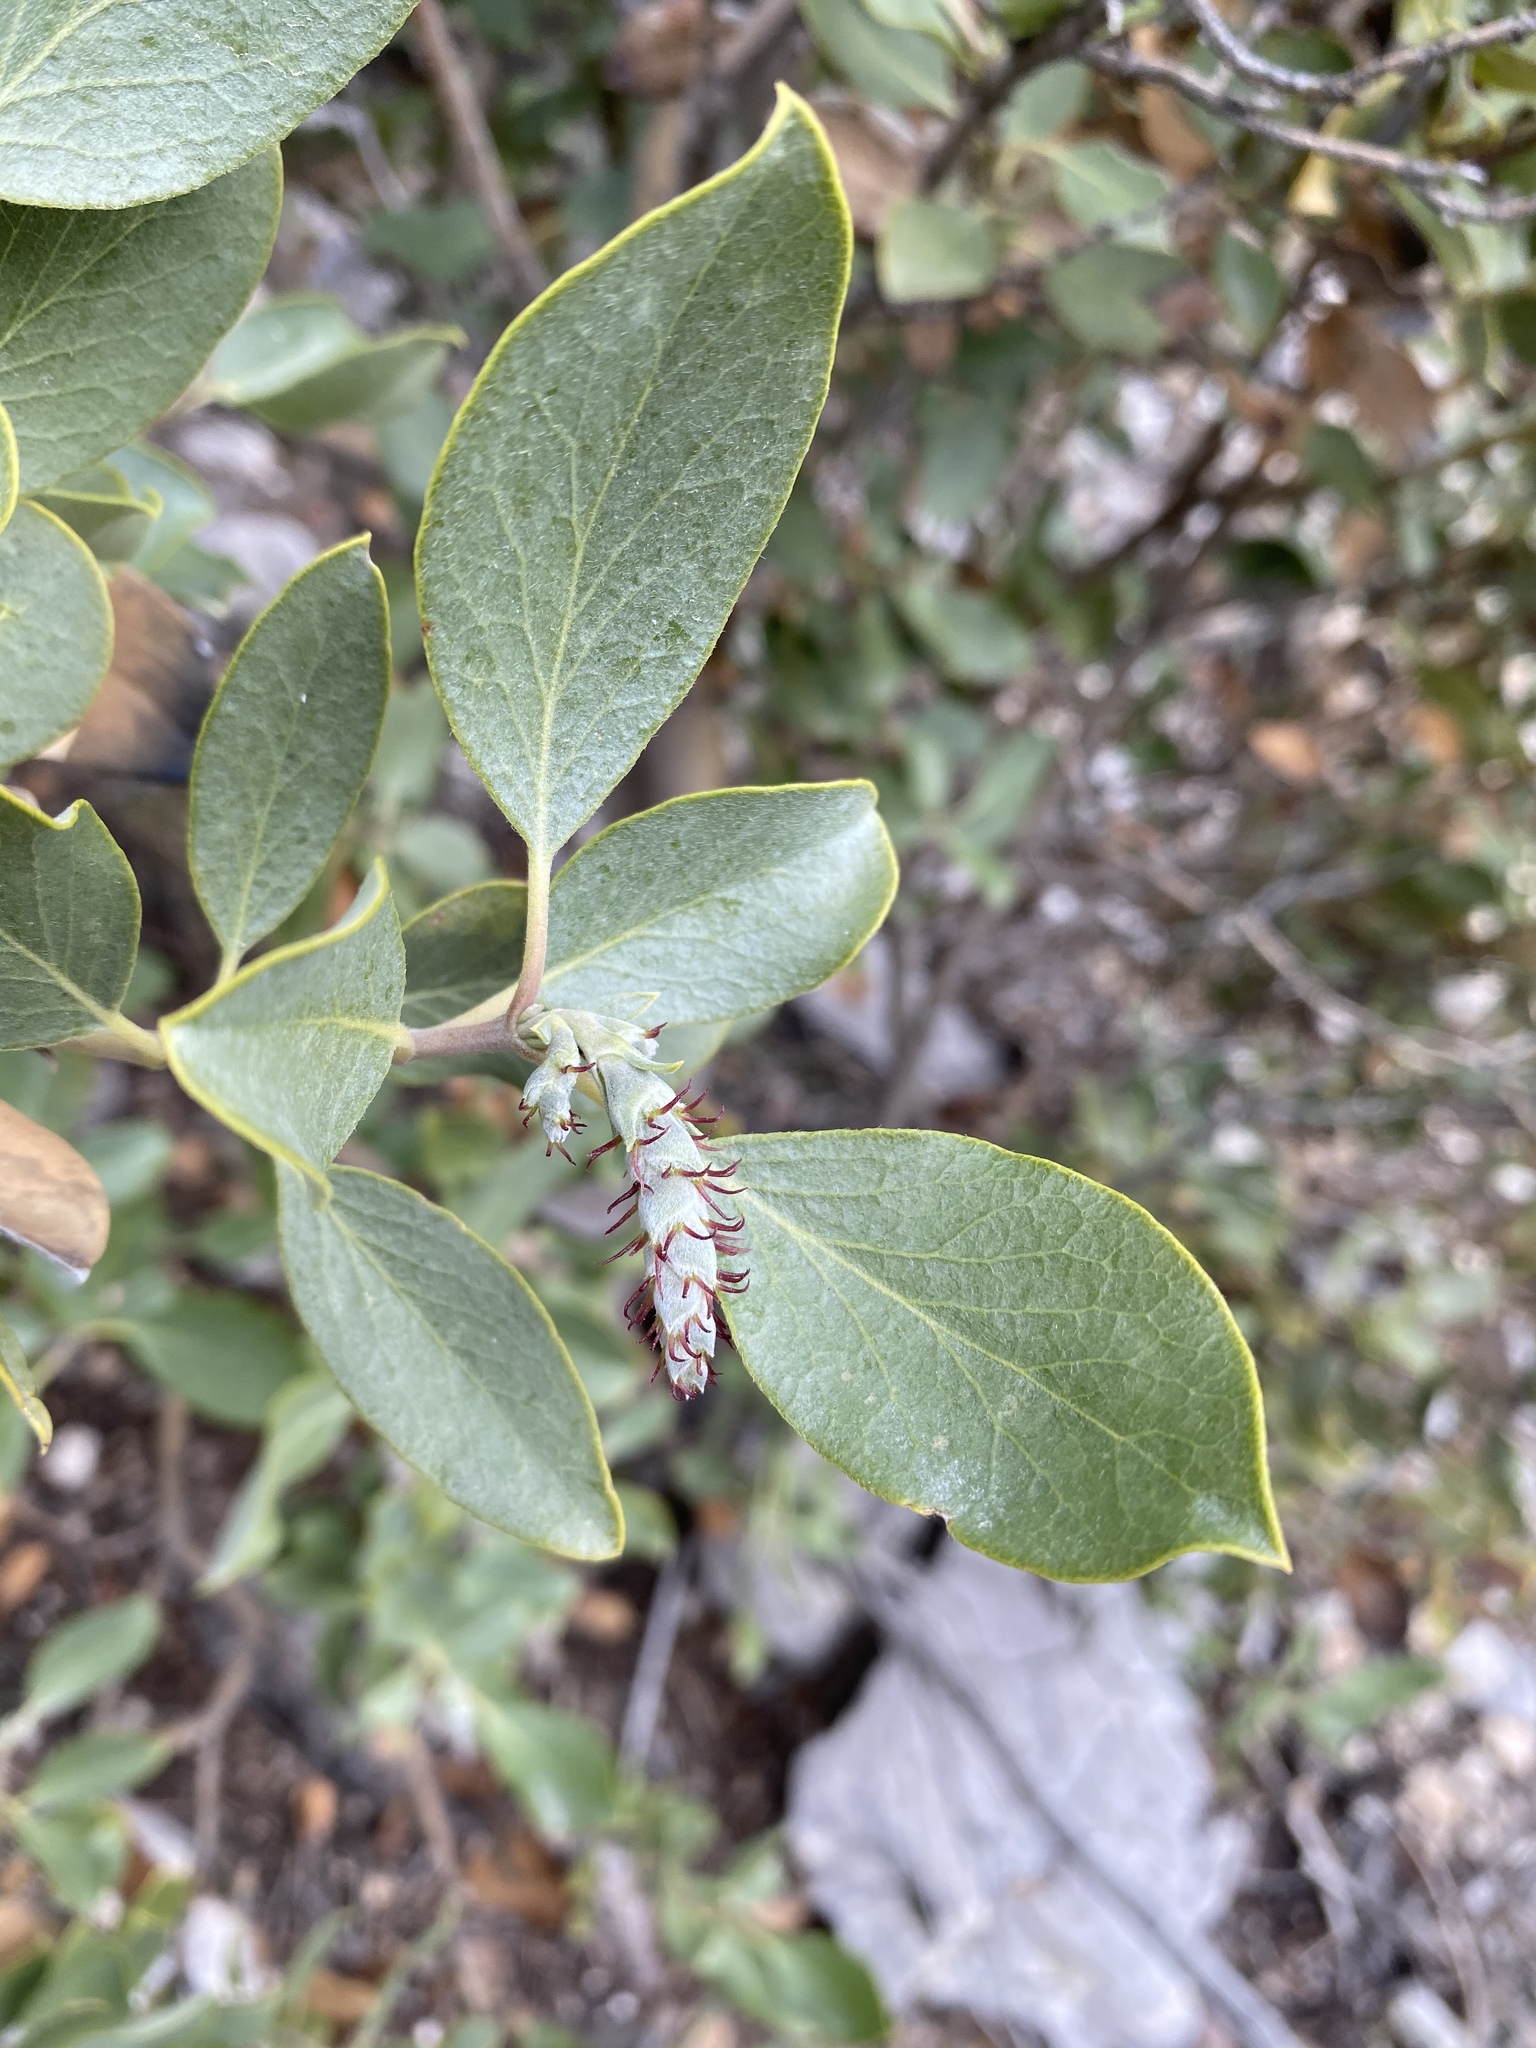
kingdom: Plantae
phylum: Tracheophyta
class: Magnoliopsida
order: Garryales
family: Garryaceae
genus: Garrya
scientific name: Garrya flavescens
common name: Ashy silk-tassel
